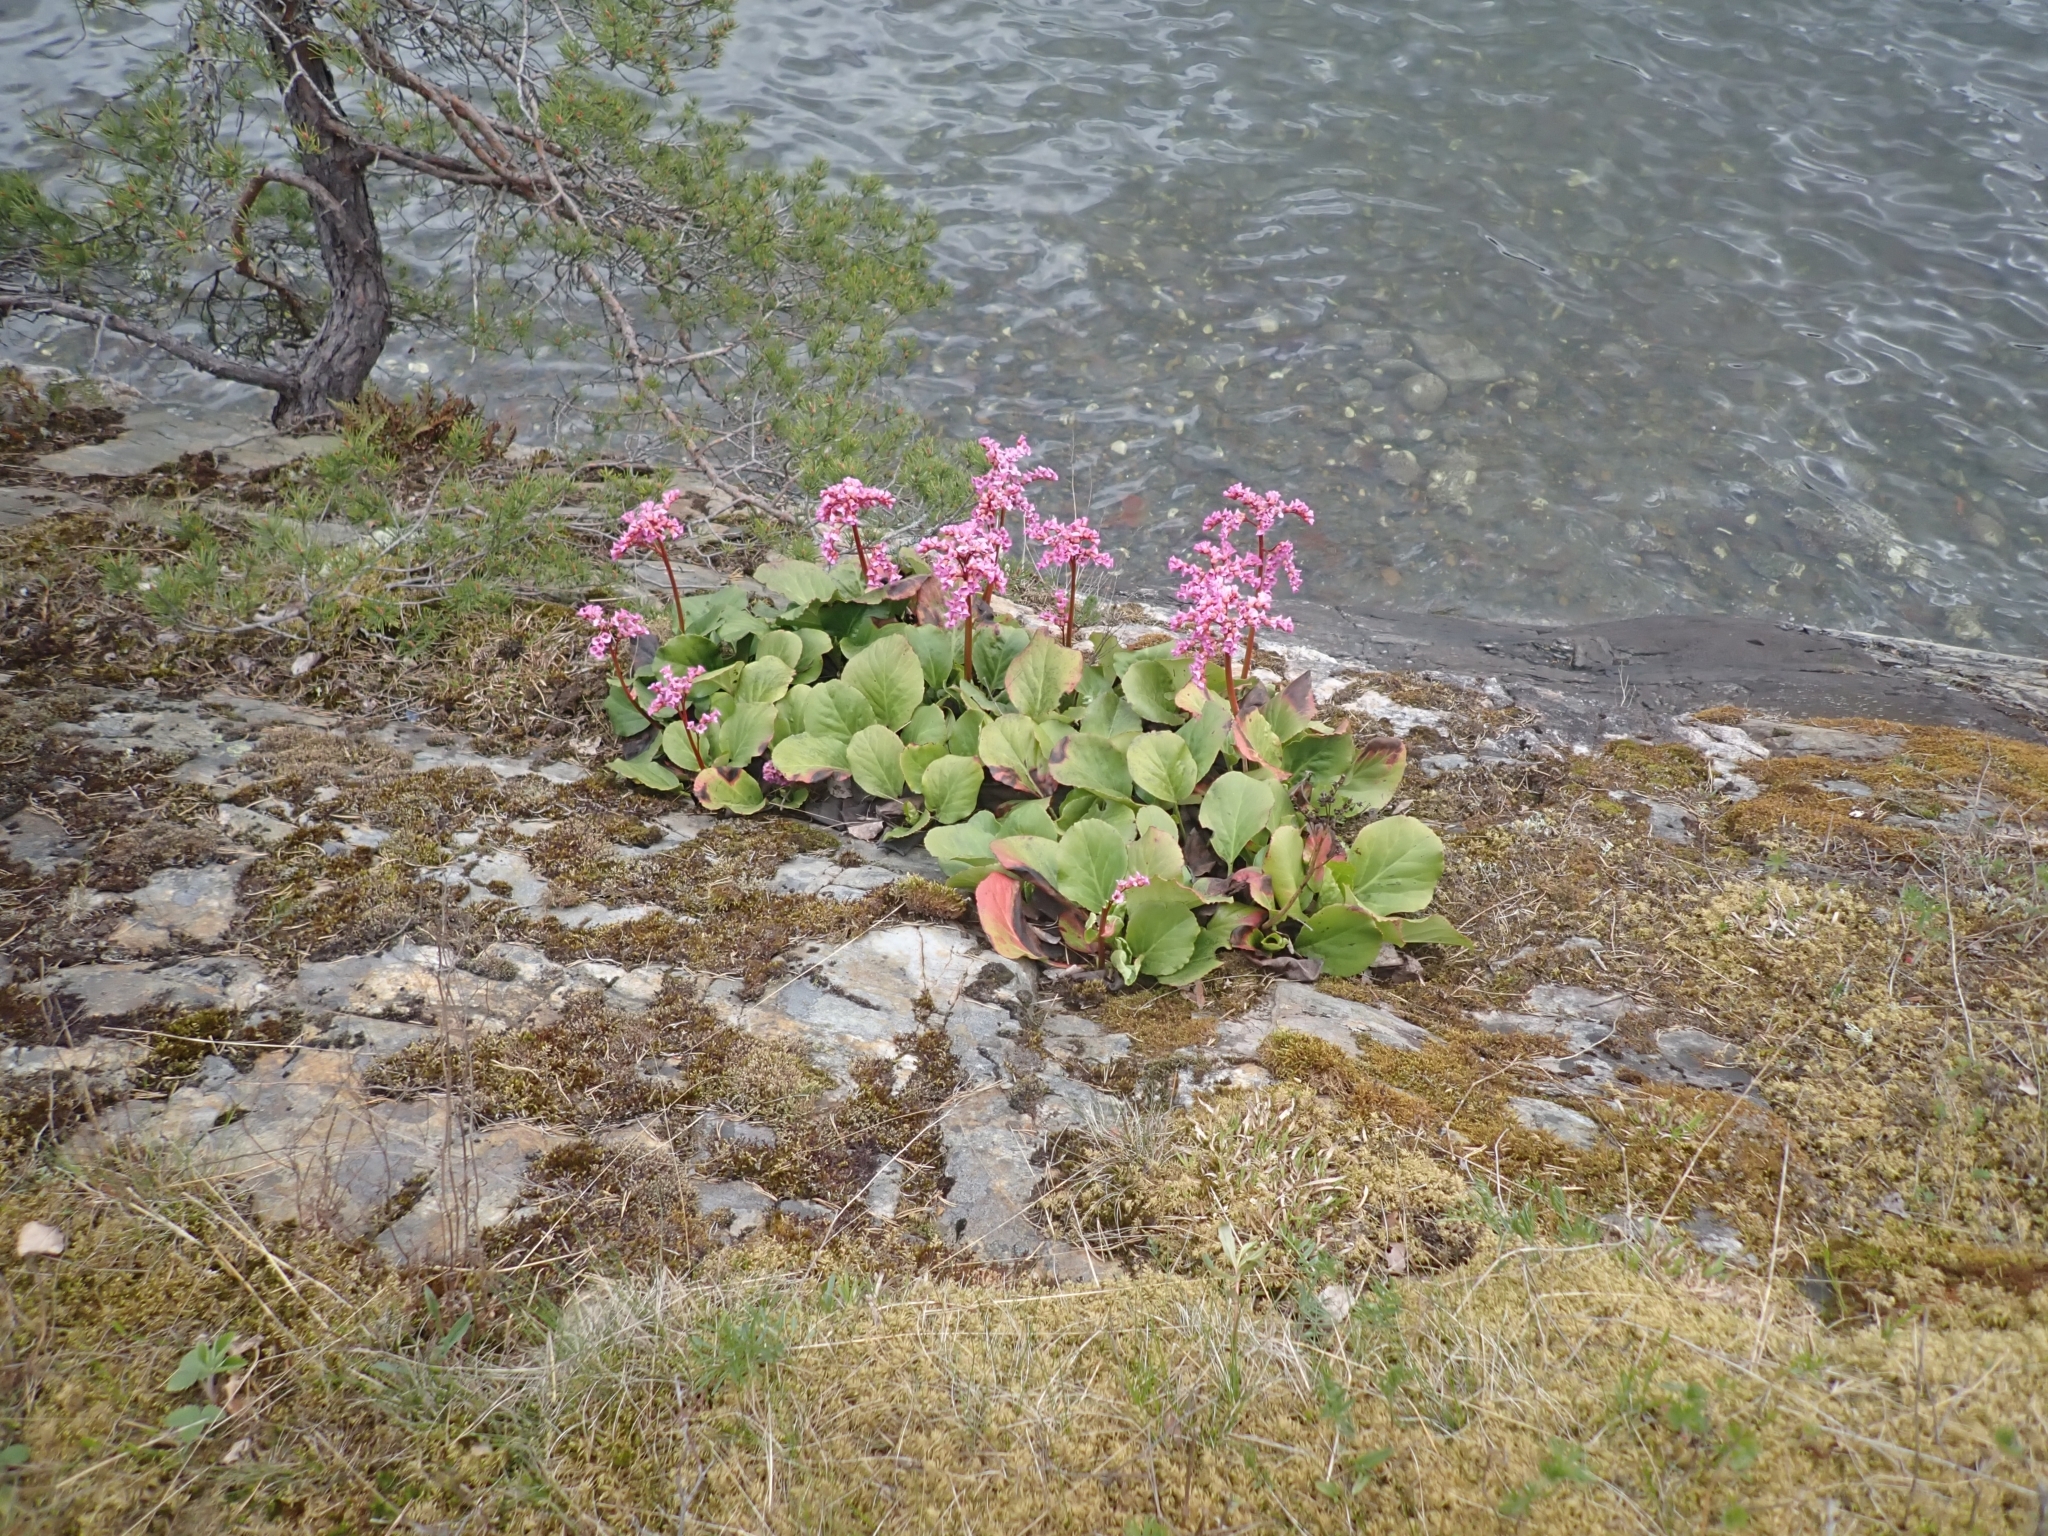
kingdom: Plantae
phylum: Tracheophyta
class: Magnoliopsida
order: Saxifragales
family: Saxifragaceae
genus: Bergenia
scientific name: Bergenia crassifolia
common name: Elephant-ears
